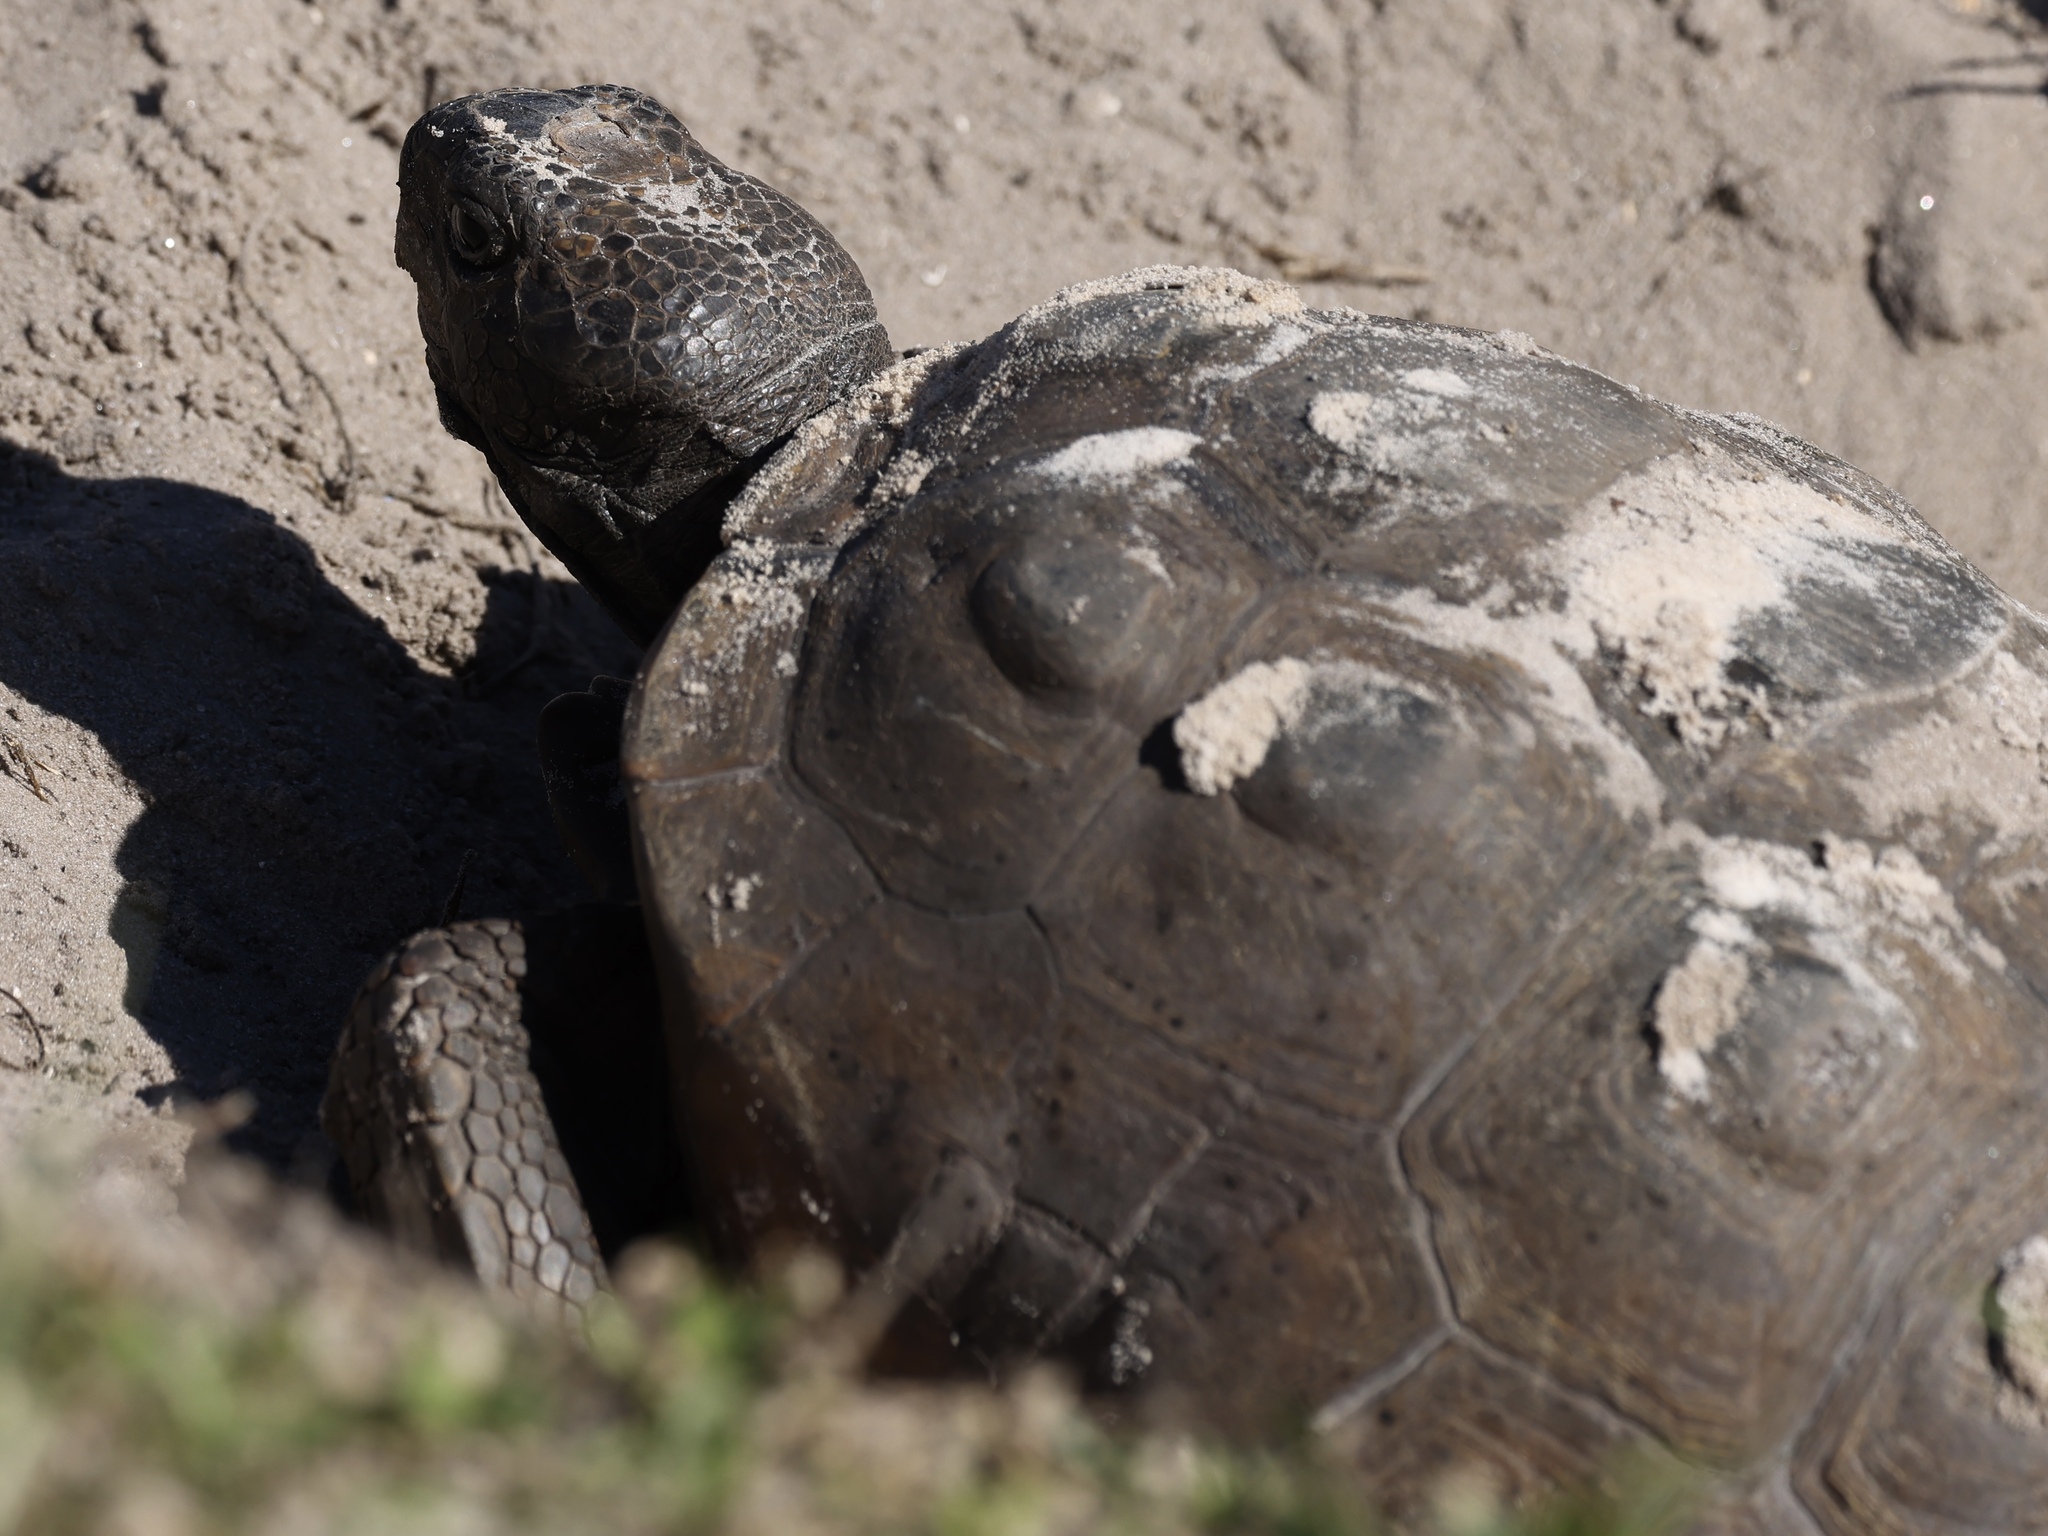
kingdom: Animalia
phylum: Chordata
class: Testudines
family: Testudinidae
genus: Gopherus
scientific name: Gopherus polyphemus
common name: Florida gopher tortoise
